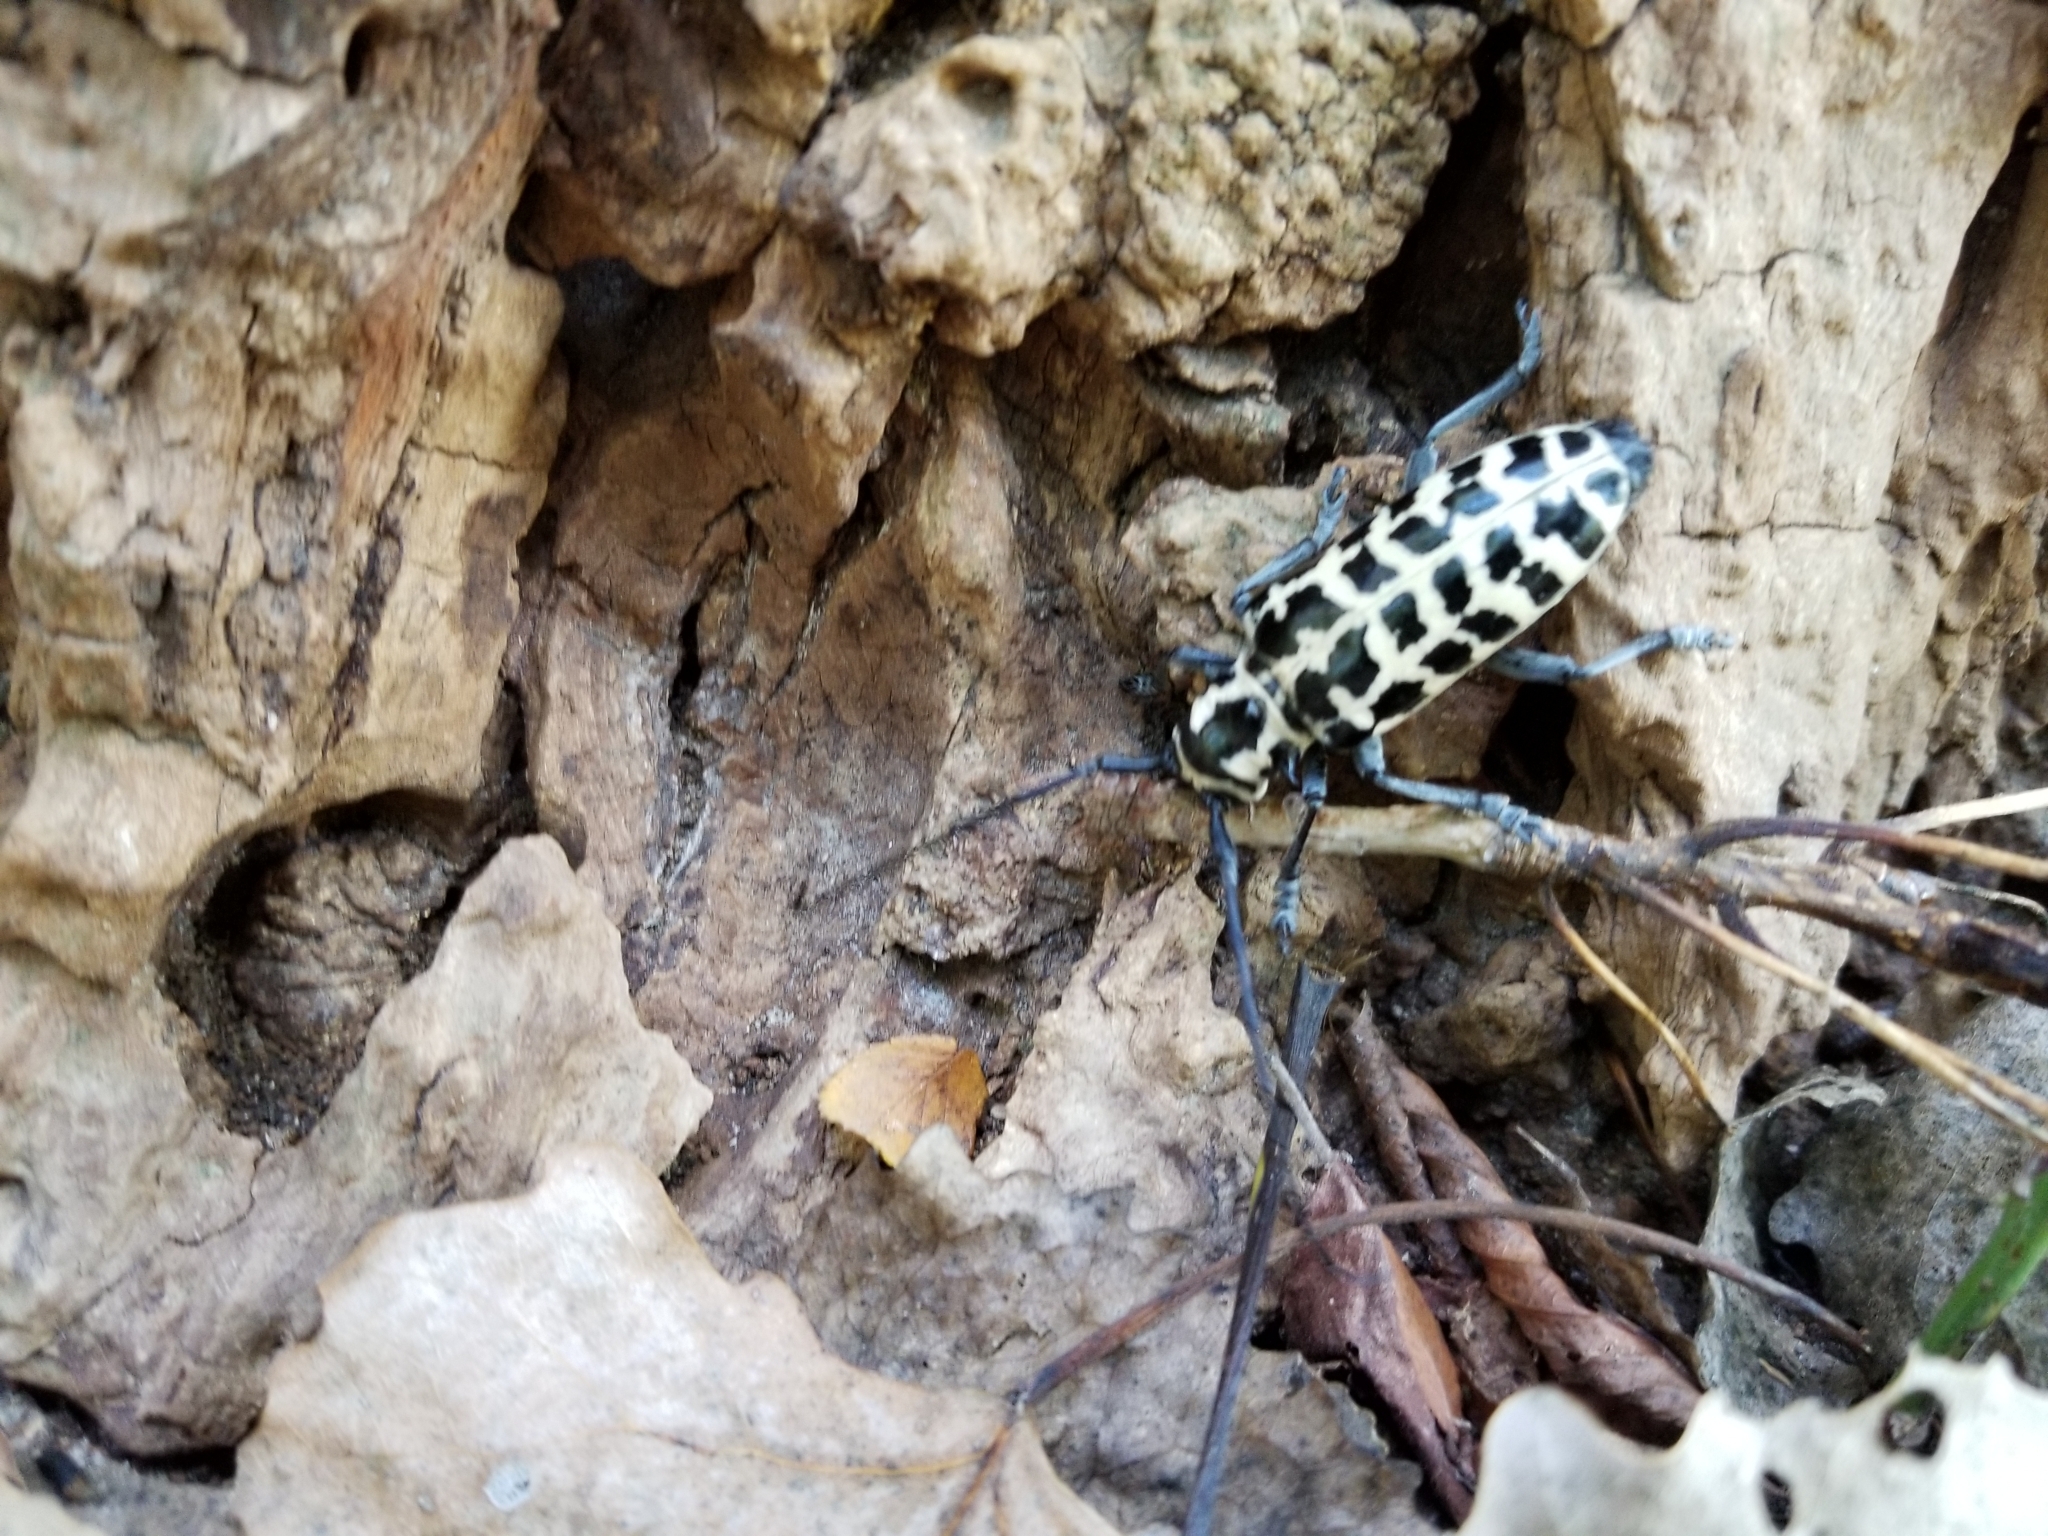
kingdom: Animalia
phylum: Arthropoda
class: Insecta
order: Coleoptera
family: Cerambycidae
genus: Plectrodera
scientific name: Plectrodera scalator
